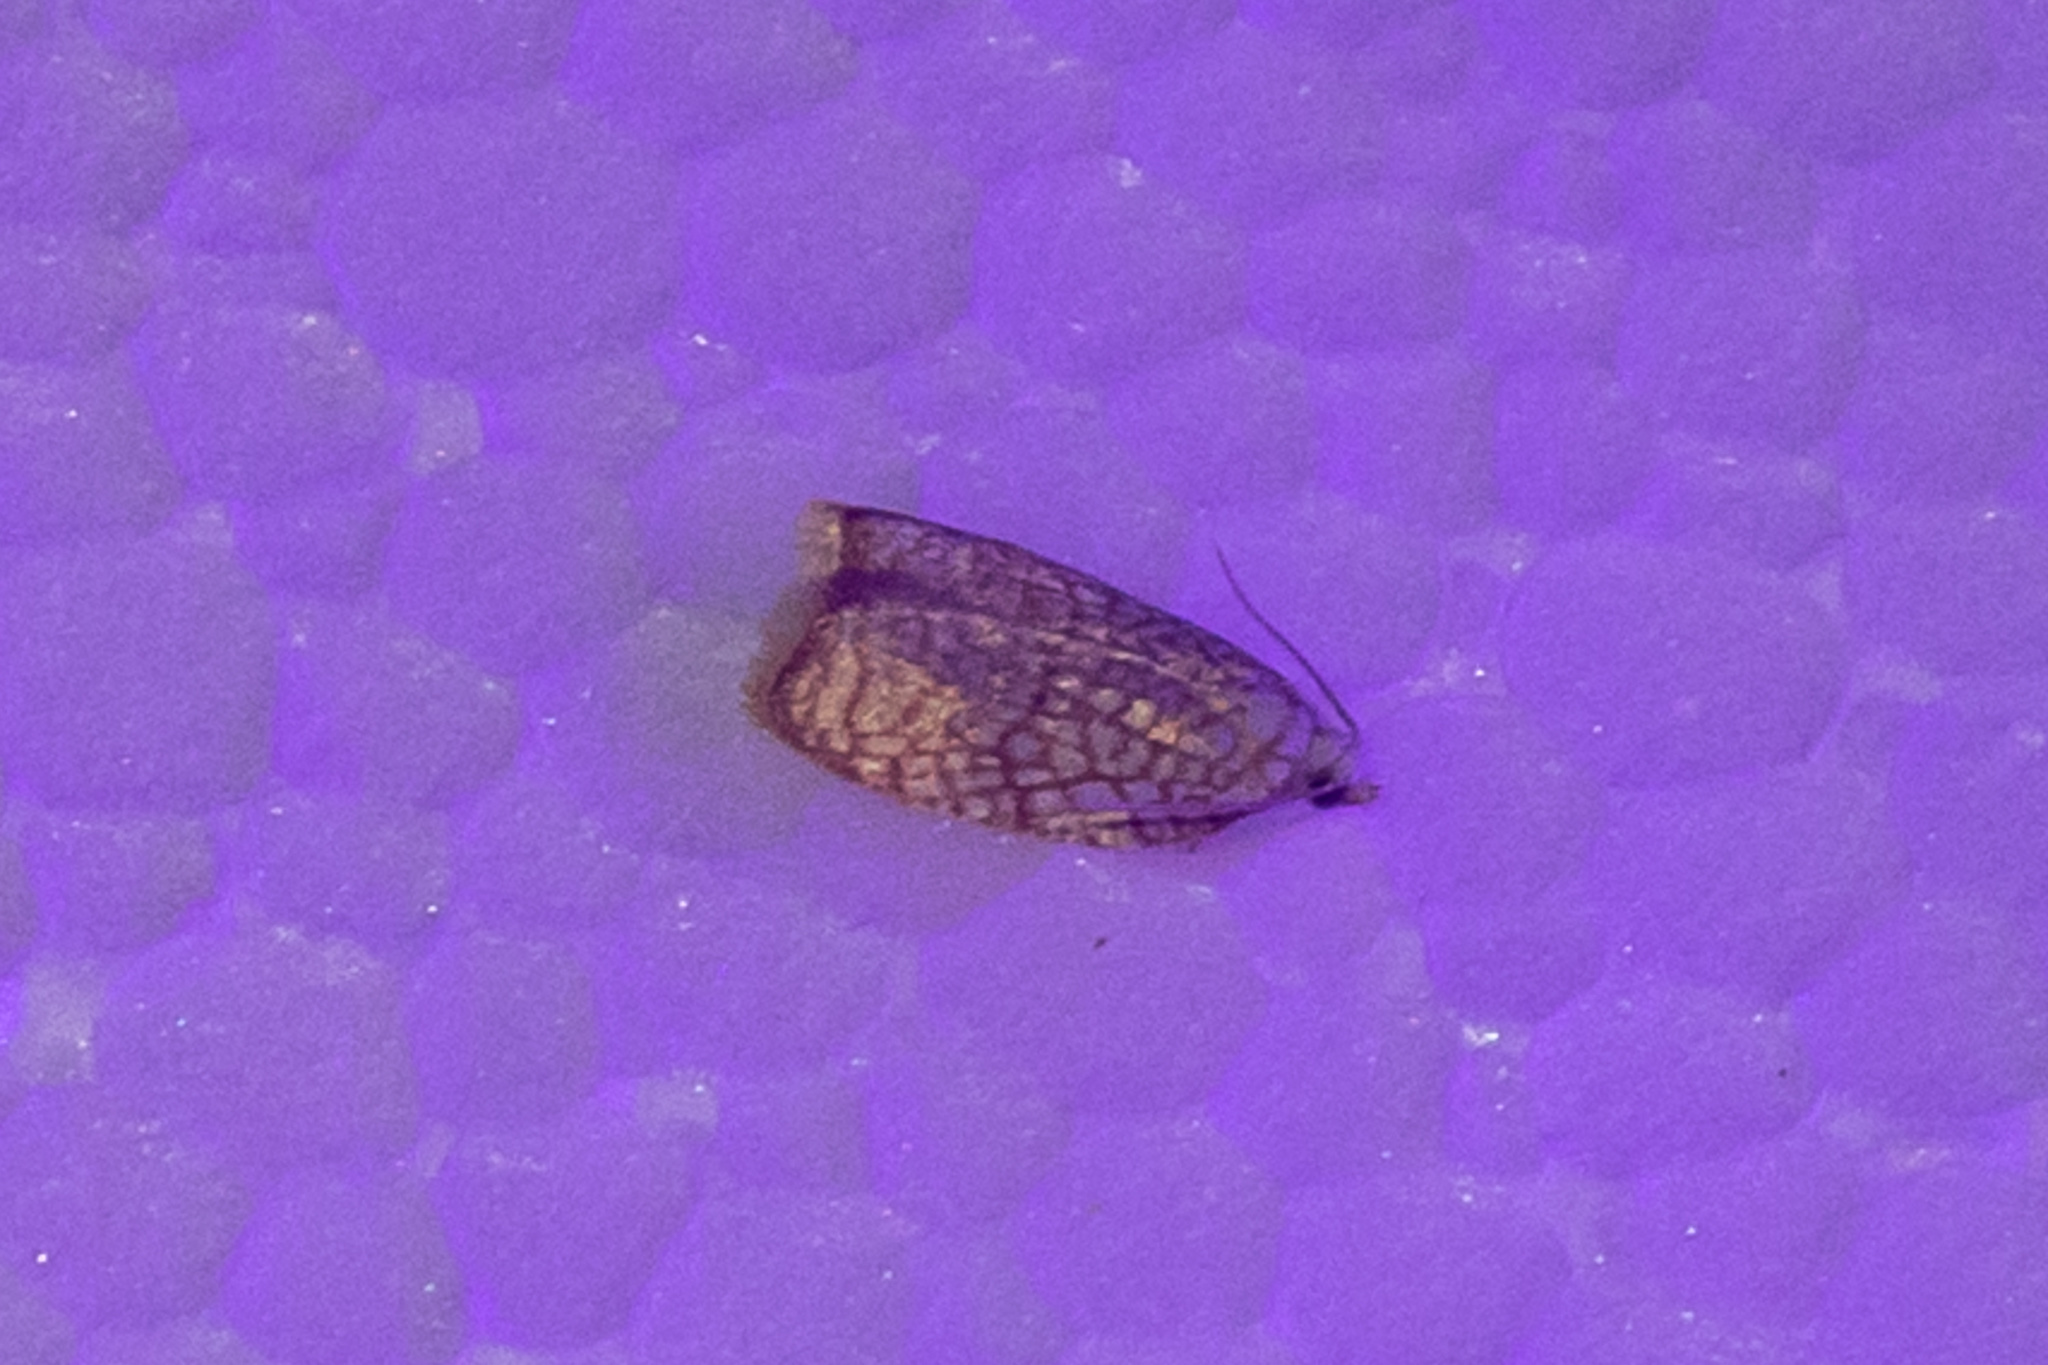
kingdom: Animalia
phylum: Arthropoda
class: Insecta
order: Lepidoptera
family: Tortricidae
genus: Acleris
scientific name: Acleris forsskaleana
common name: Maple button
